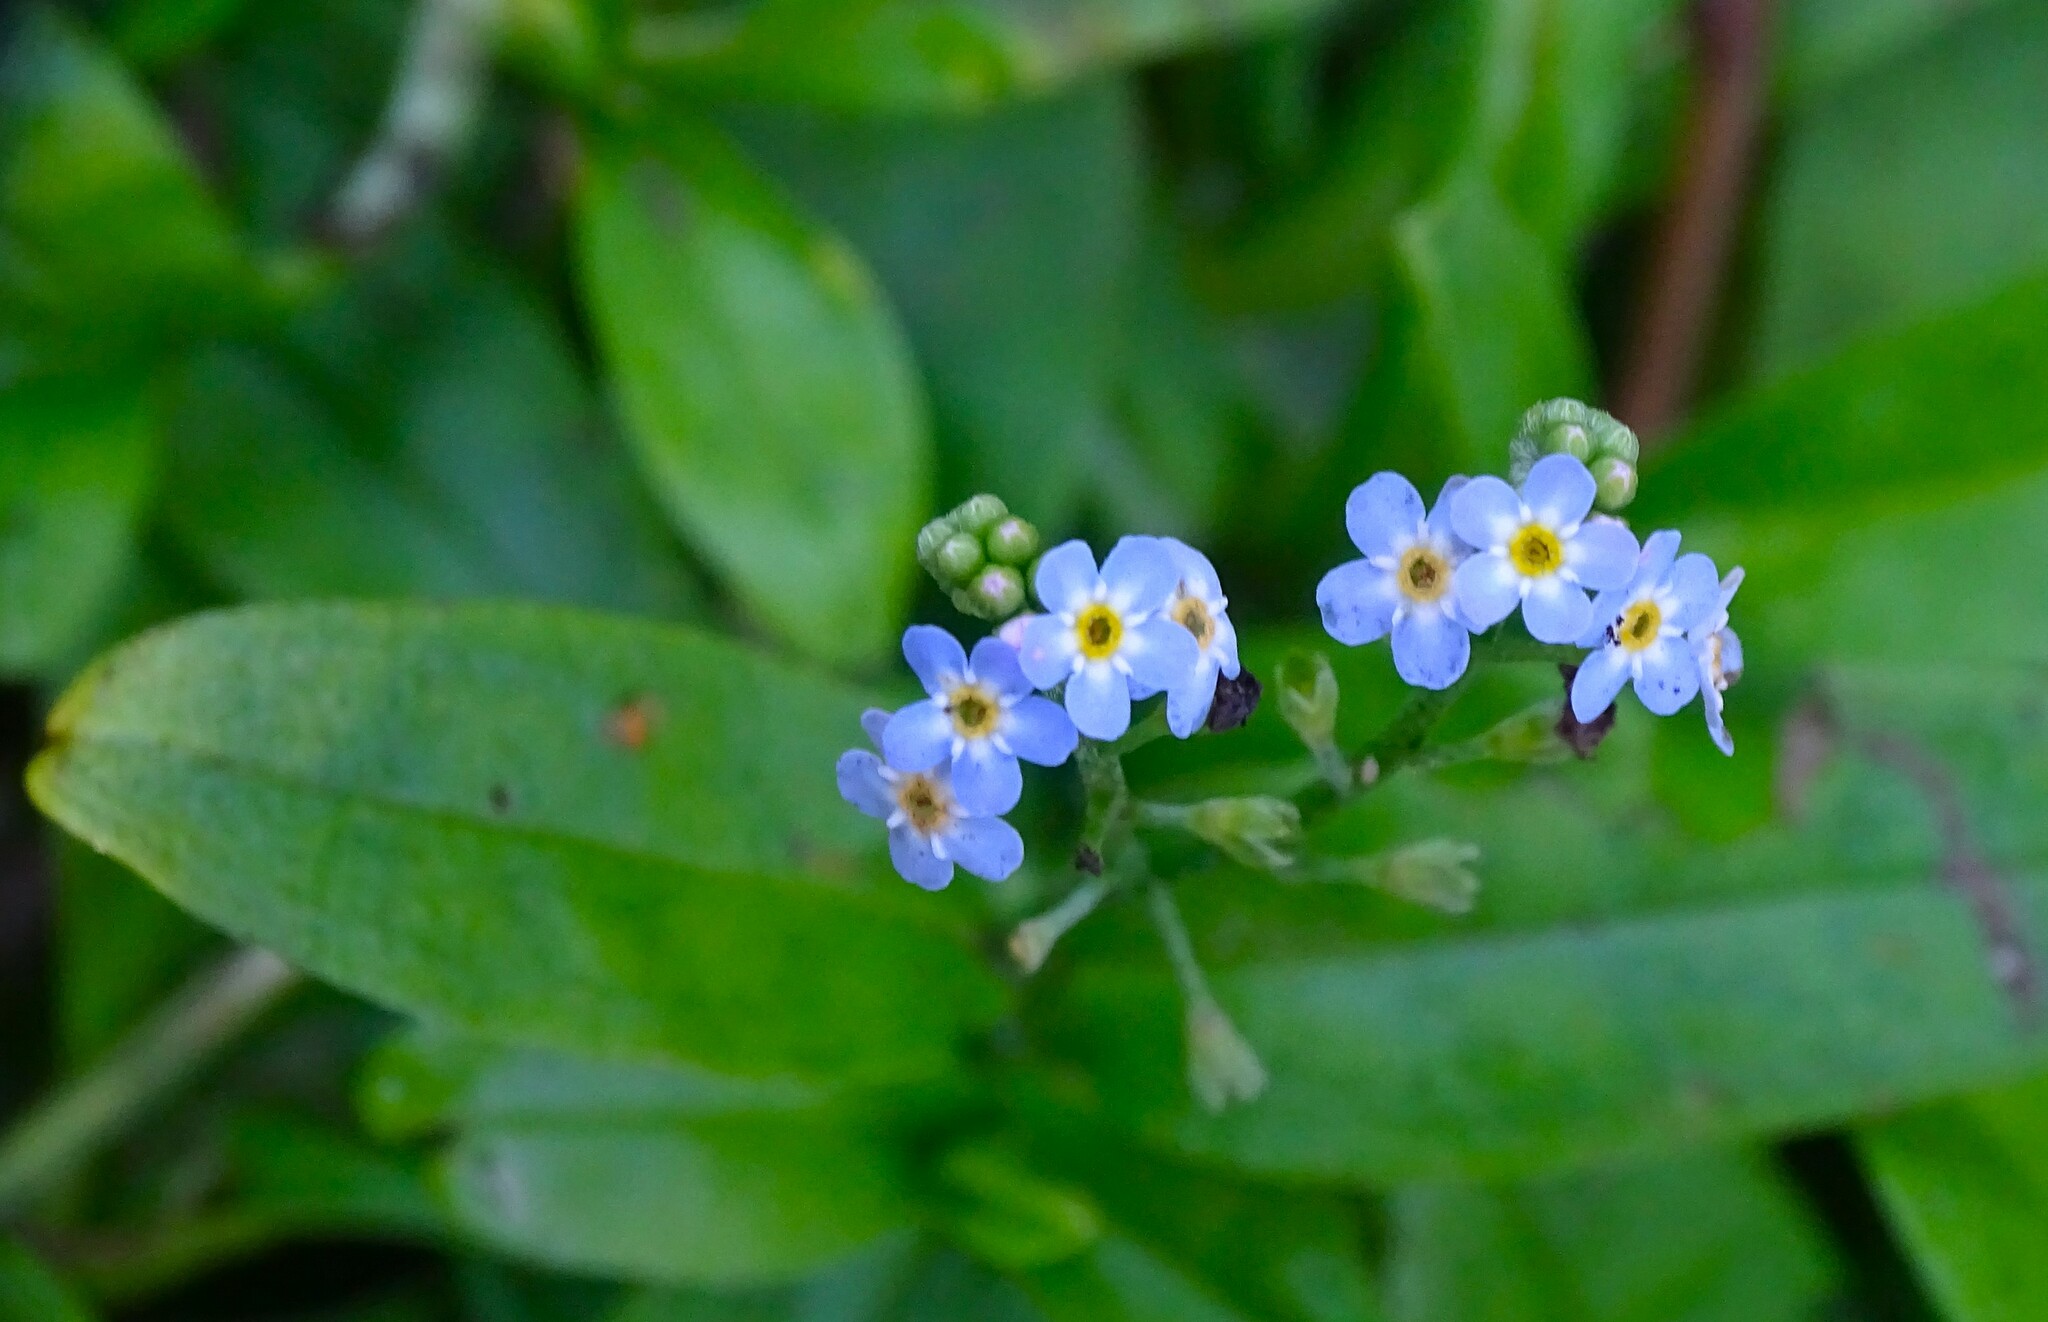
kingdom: Plantae
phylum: Tracheophyta
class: Magnoliopsida
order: Boraginales
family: Boraginaceae
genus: Myosotis
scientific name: Myosotis scorpioides
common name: Water forget-me-not
